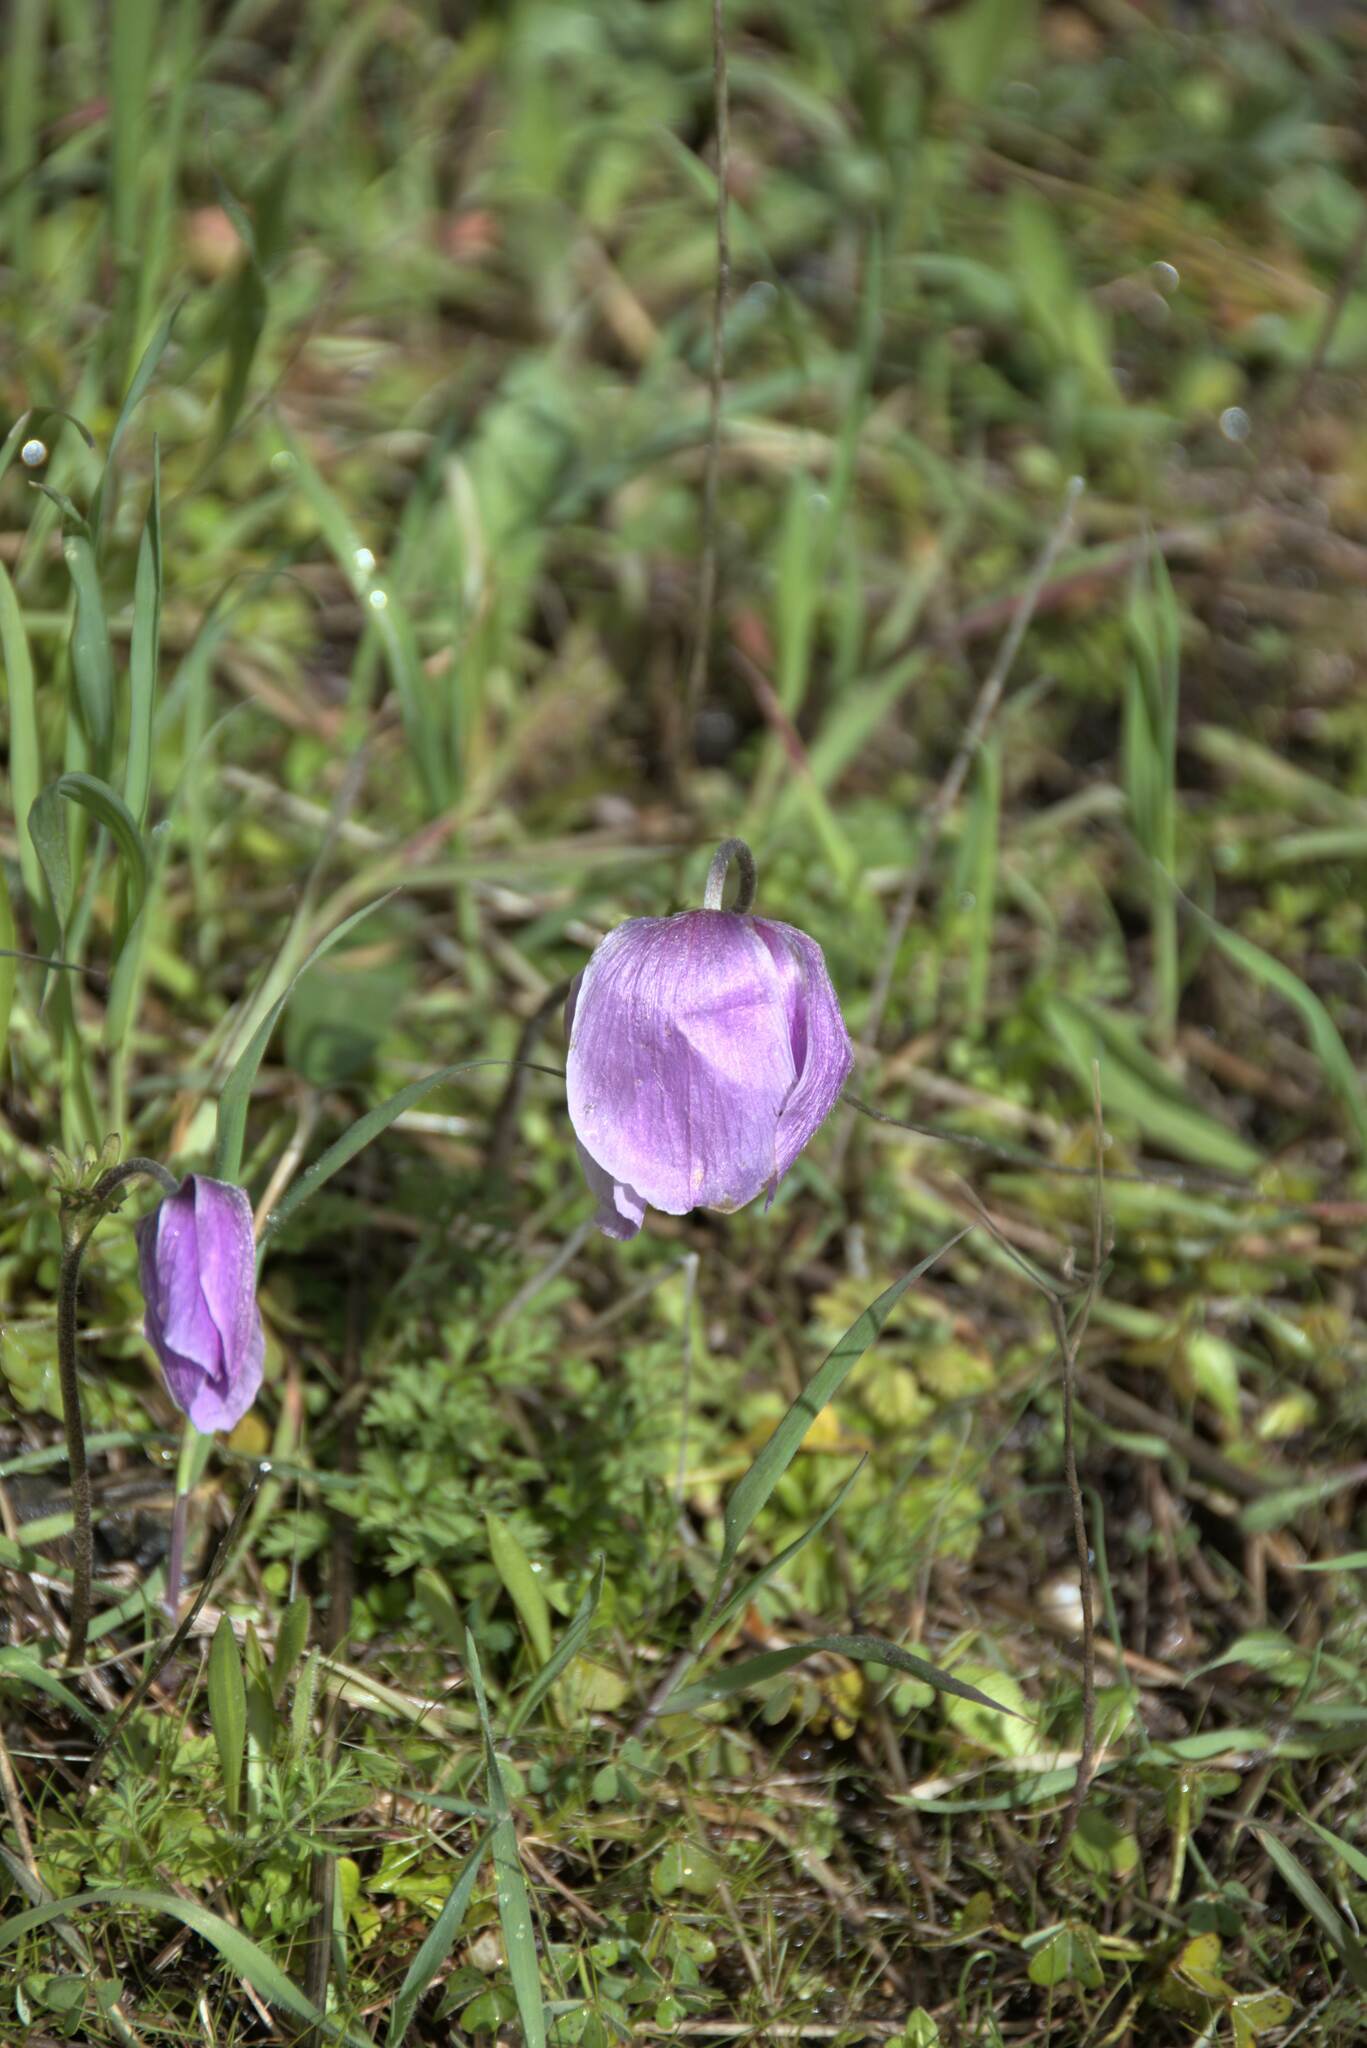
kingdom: Plantae
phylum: Tracheophyta
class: Magnoliopsida
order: Ranunculales
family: Ranunculaceae
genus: Anemone
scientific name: Anemone coronaria
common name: Poppy anemone
